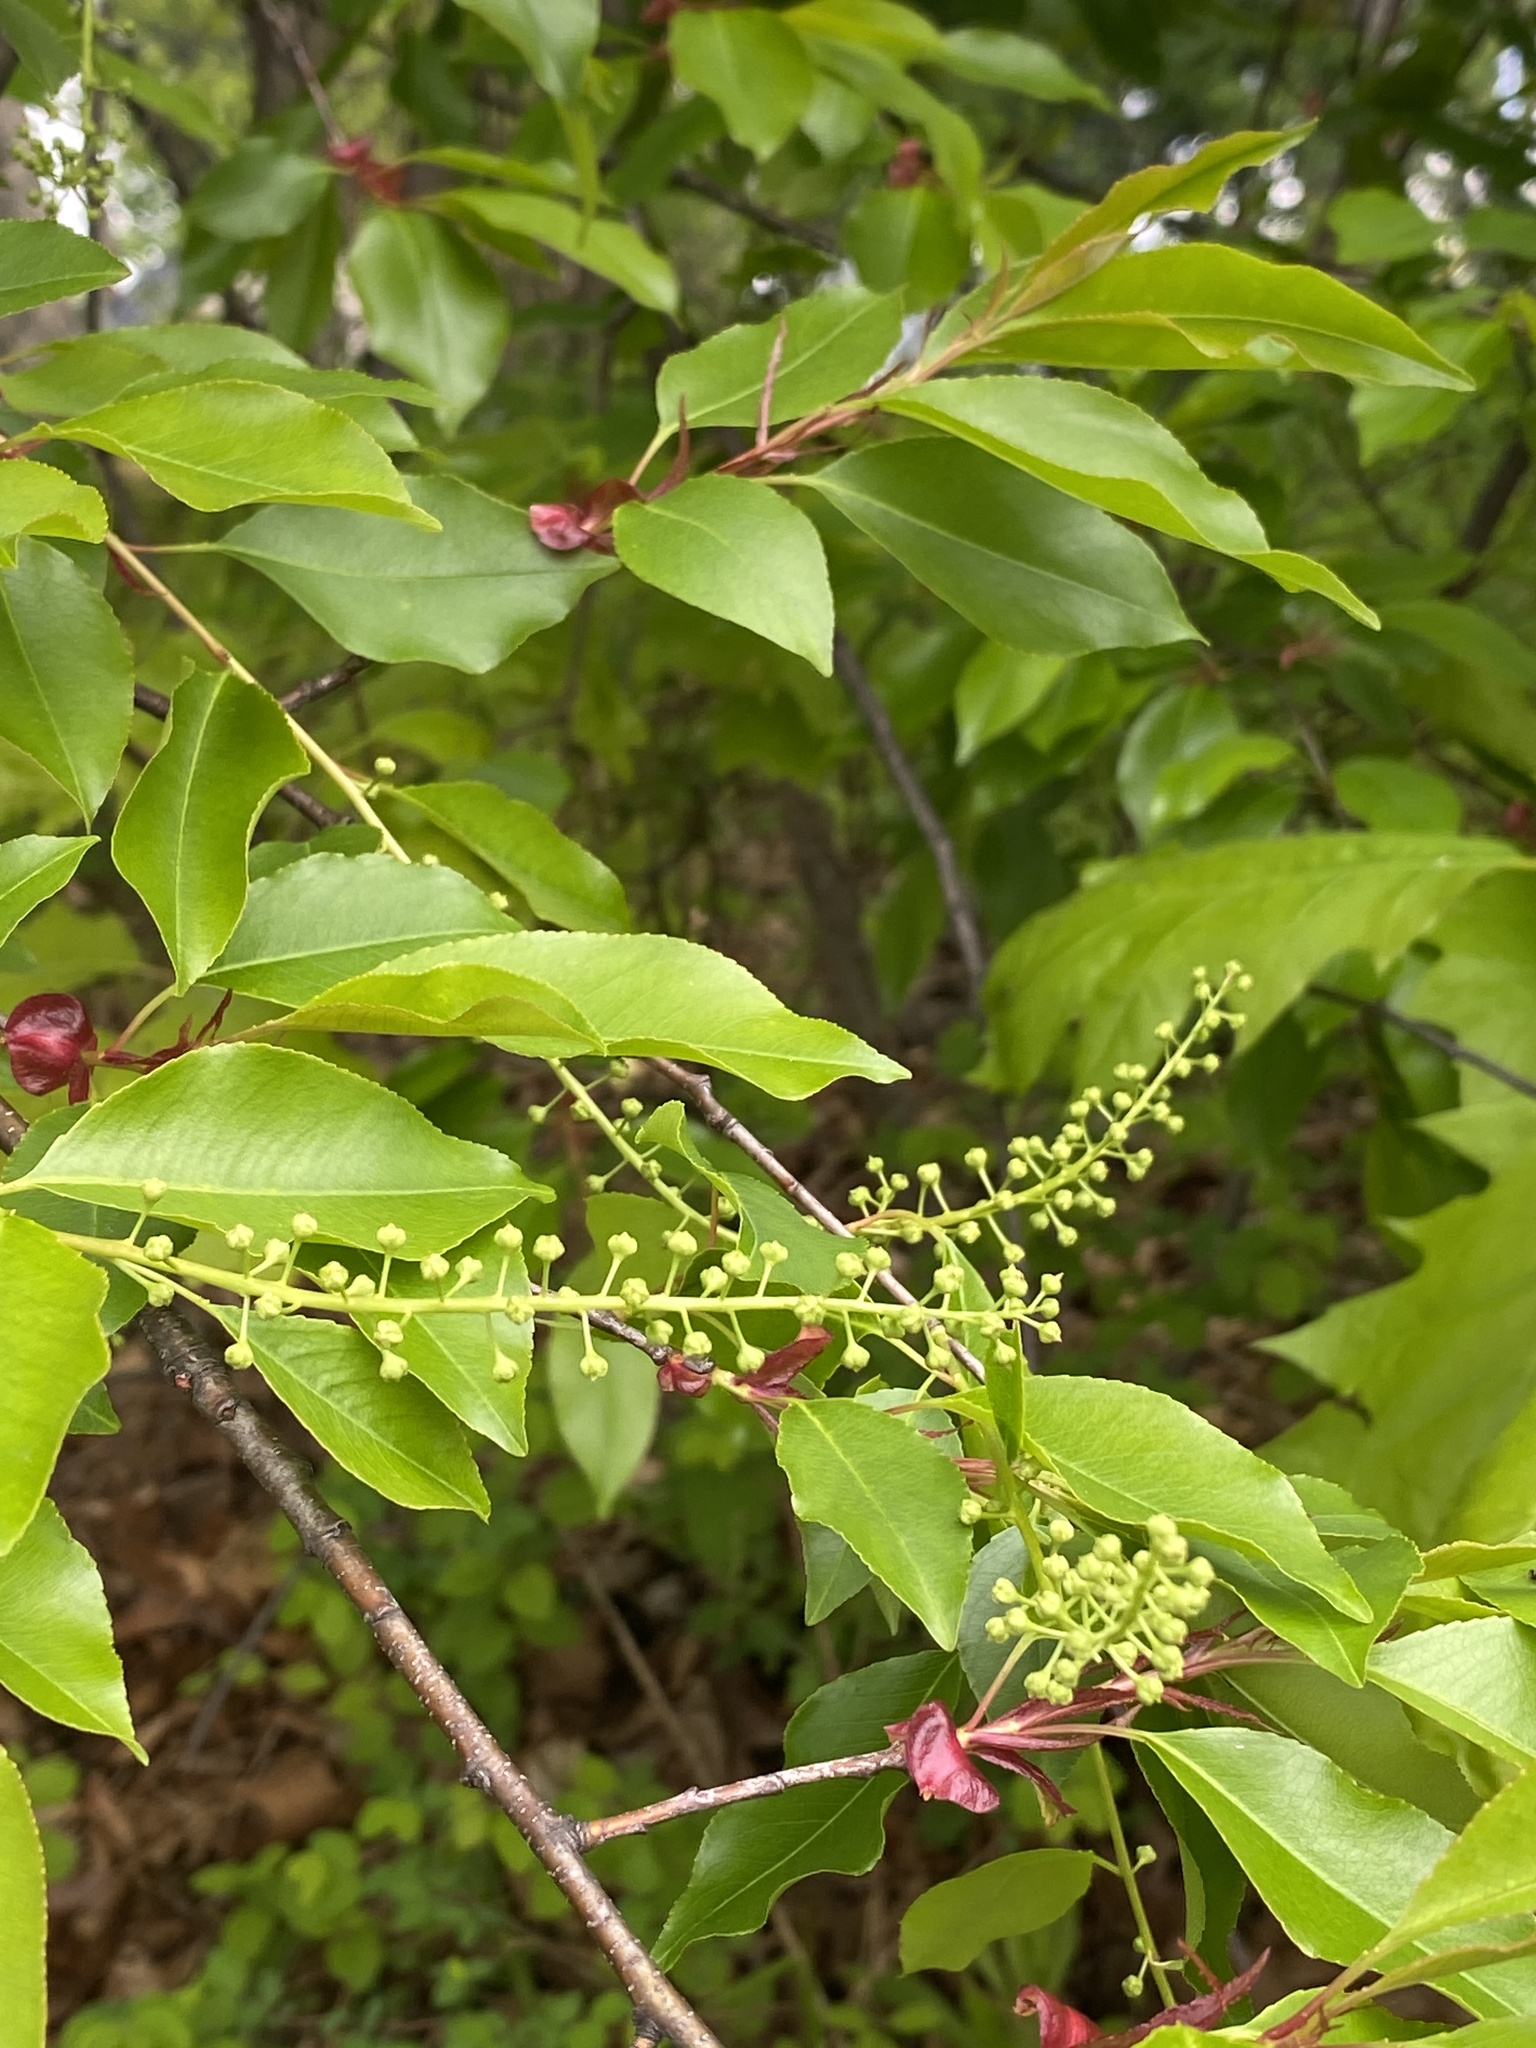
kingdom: Plantae
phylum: Tracheophyta
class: Magnoliopsida
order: Rosales
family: Rosaceae
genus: Prunus
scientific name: Prunus serotina
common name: Black cherry
